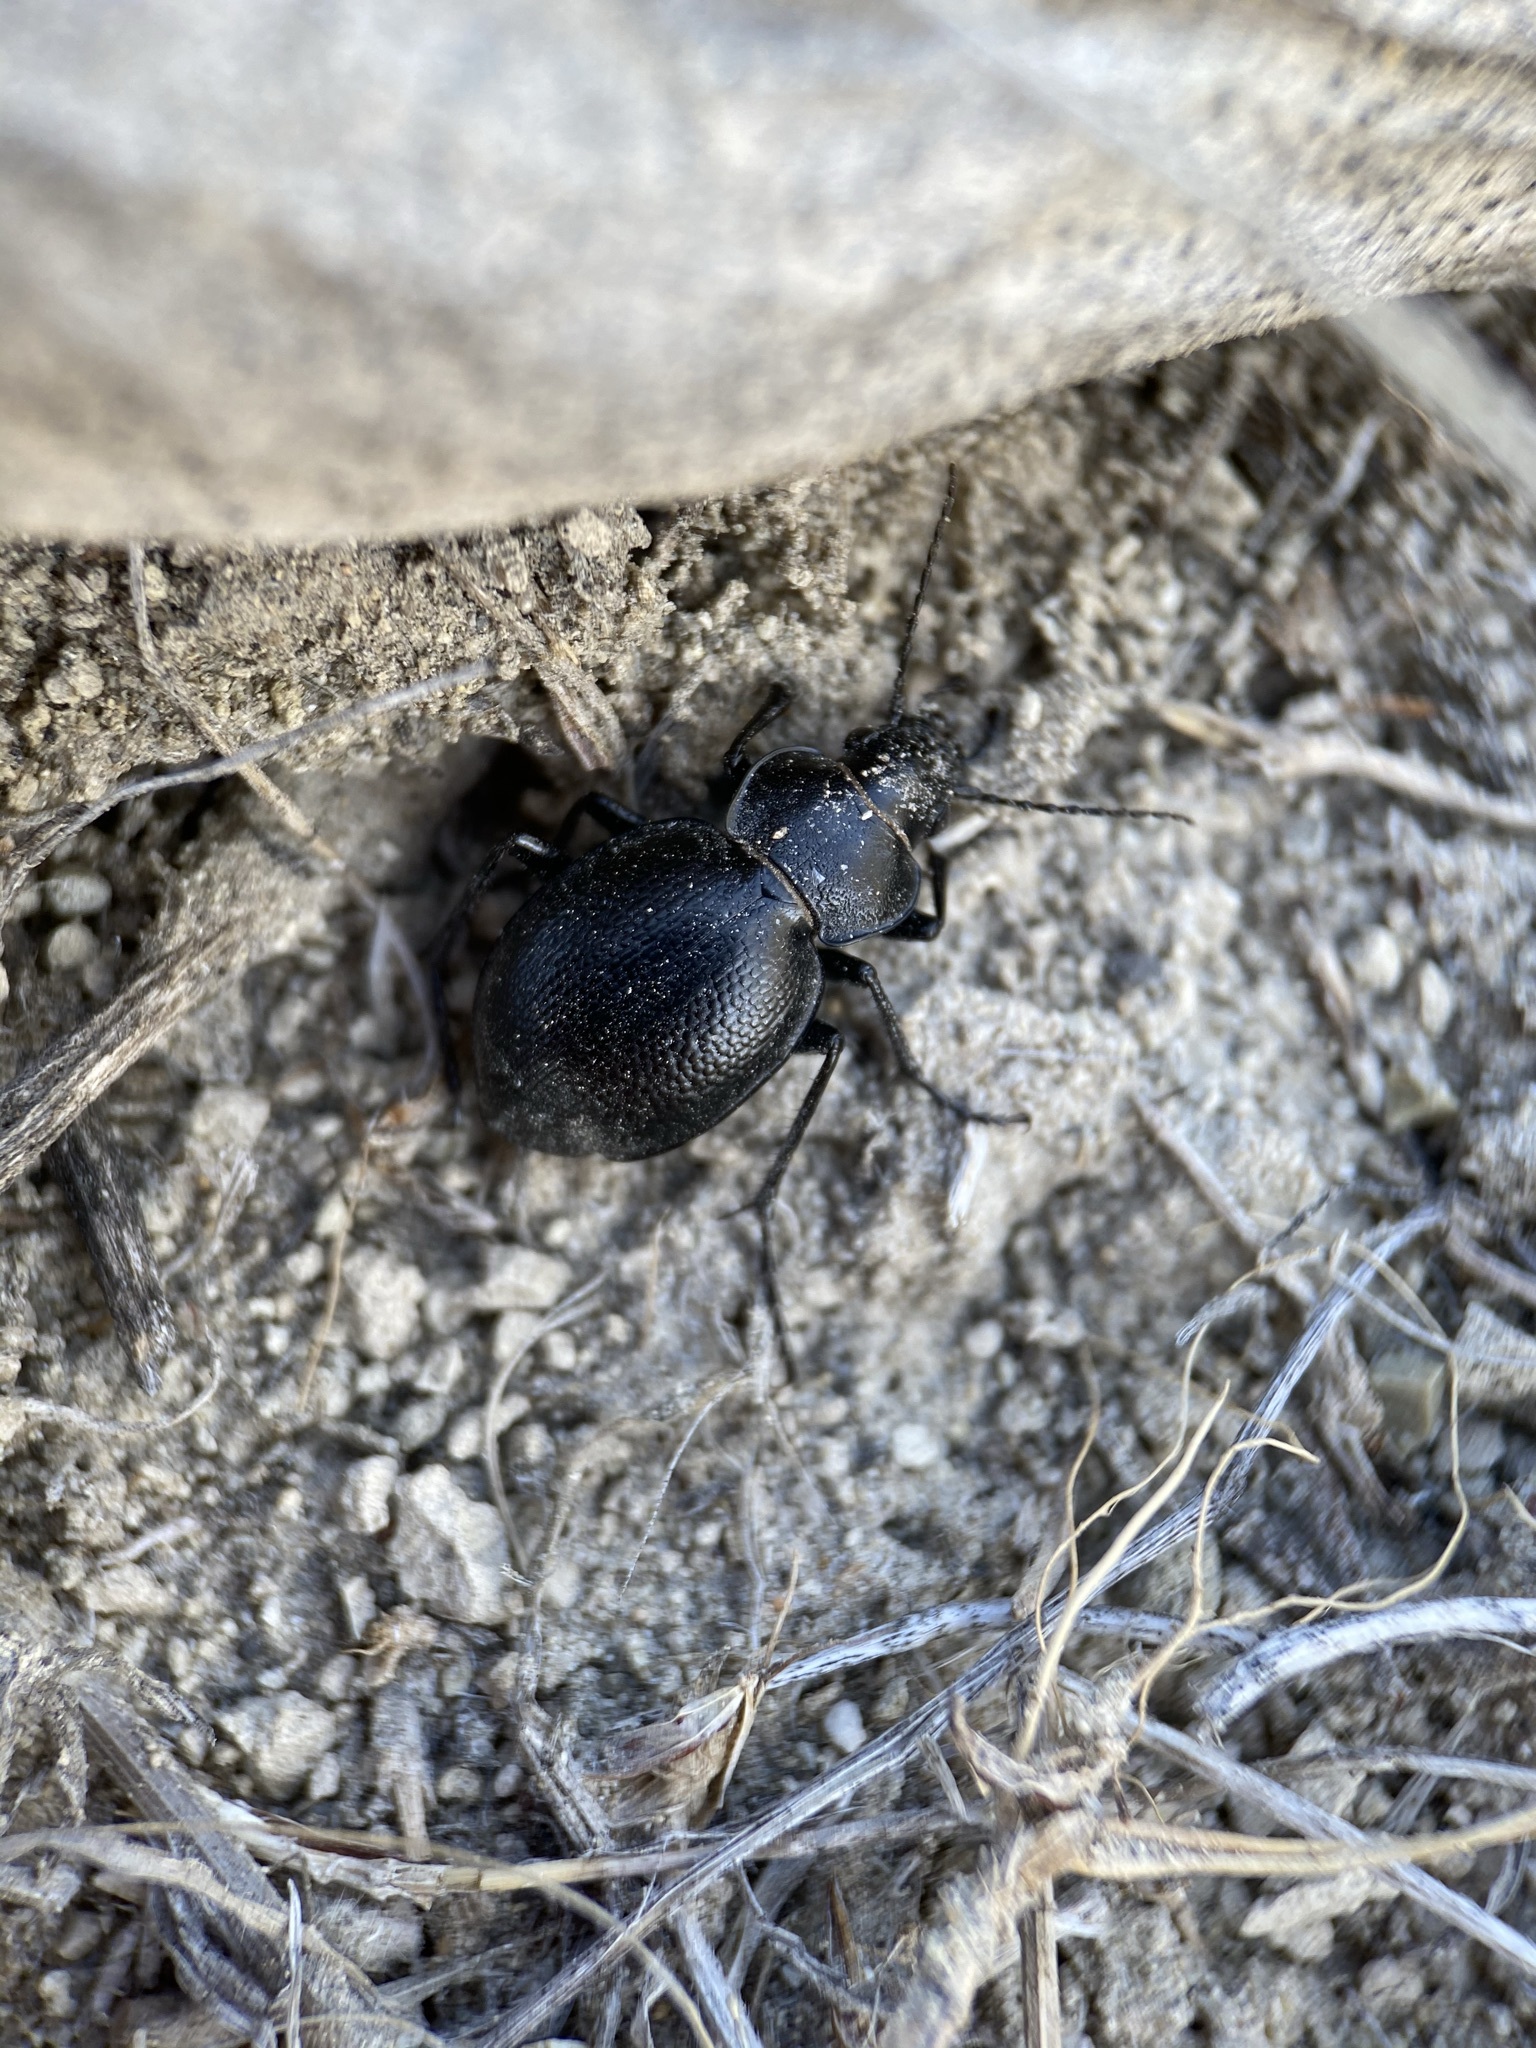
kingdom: Animalia
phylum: Arthropoda
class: Insecta
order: Coleoptera
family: Carabidae
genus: Calosoma
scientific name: Calosoma luxatum
